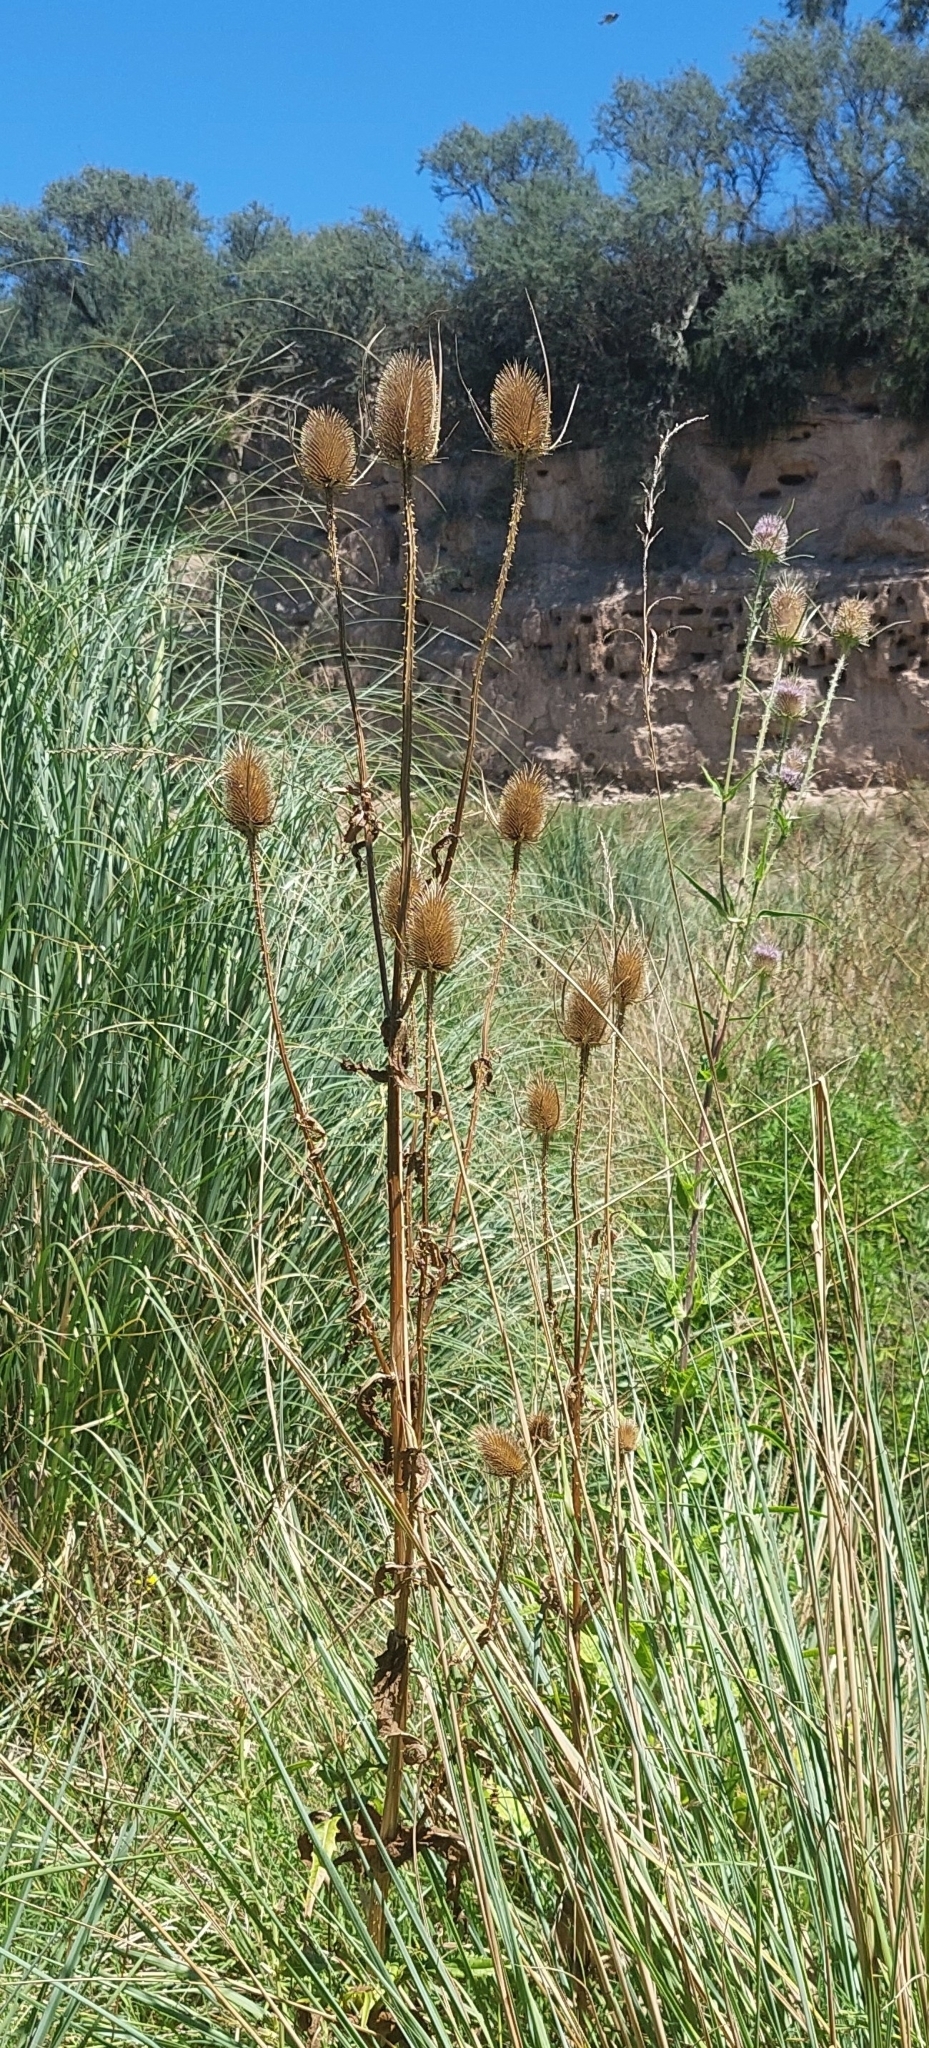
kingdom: Plantae
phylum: Tracheophyta
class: Magnoliopsida
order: Dipsacales
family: Caprifoliaceae
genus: Dipsacus
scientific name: Dipsacus fullonum
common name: Teasel
